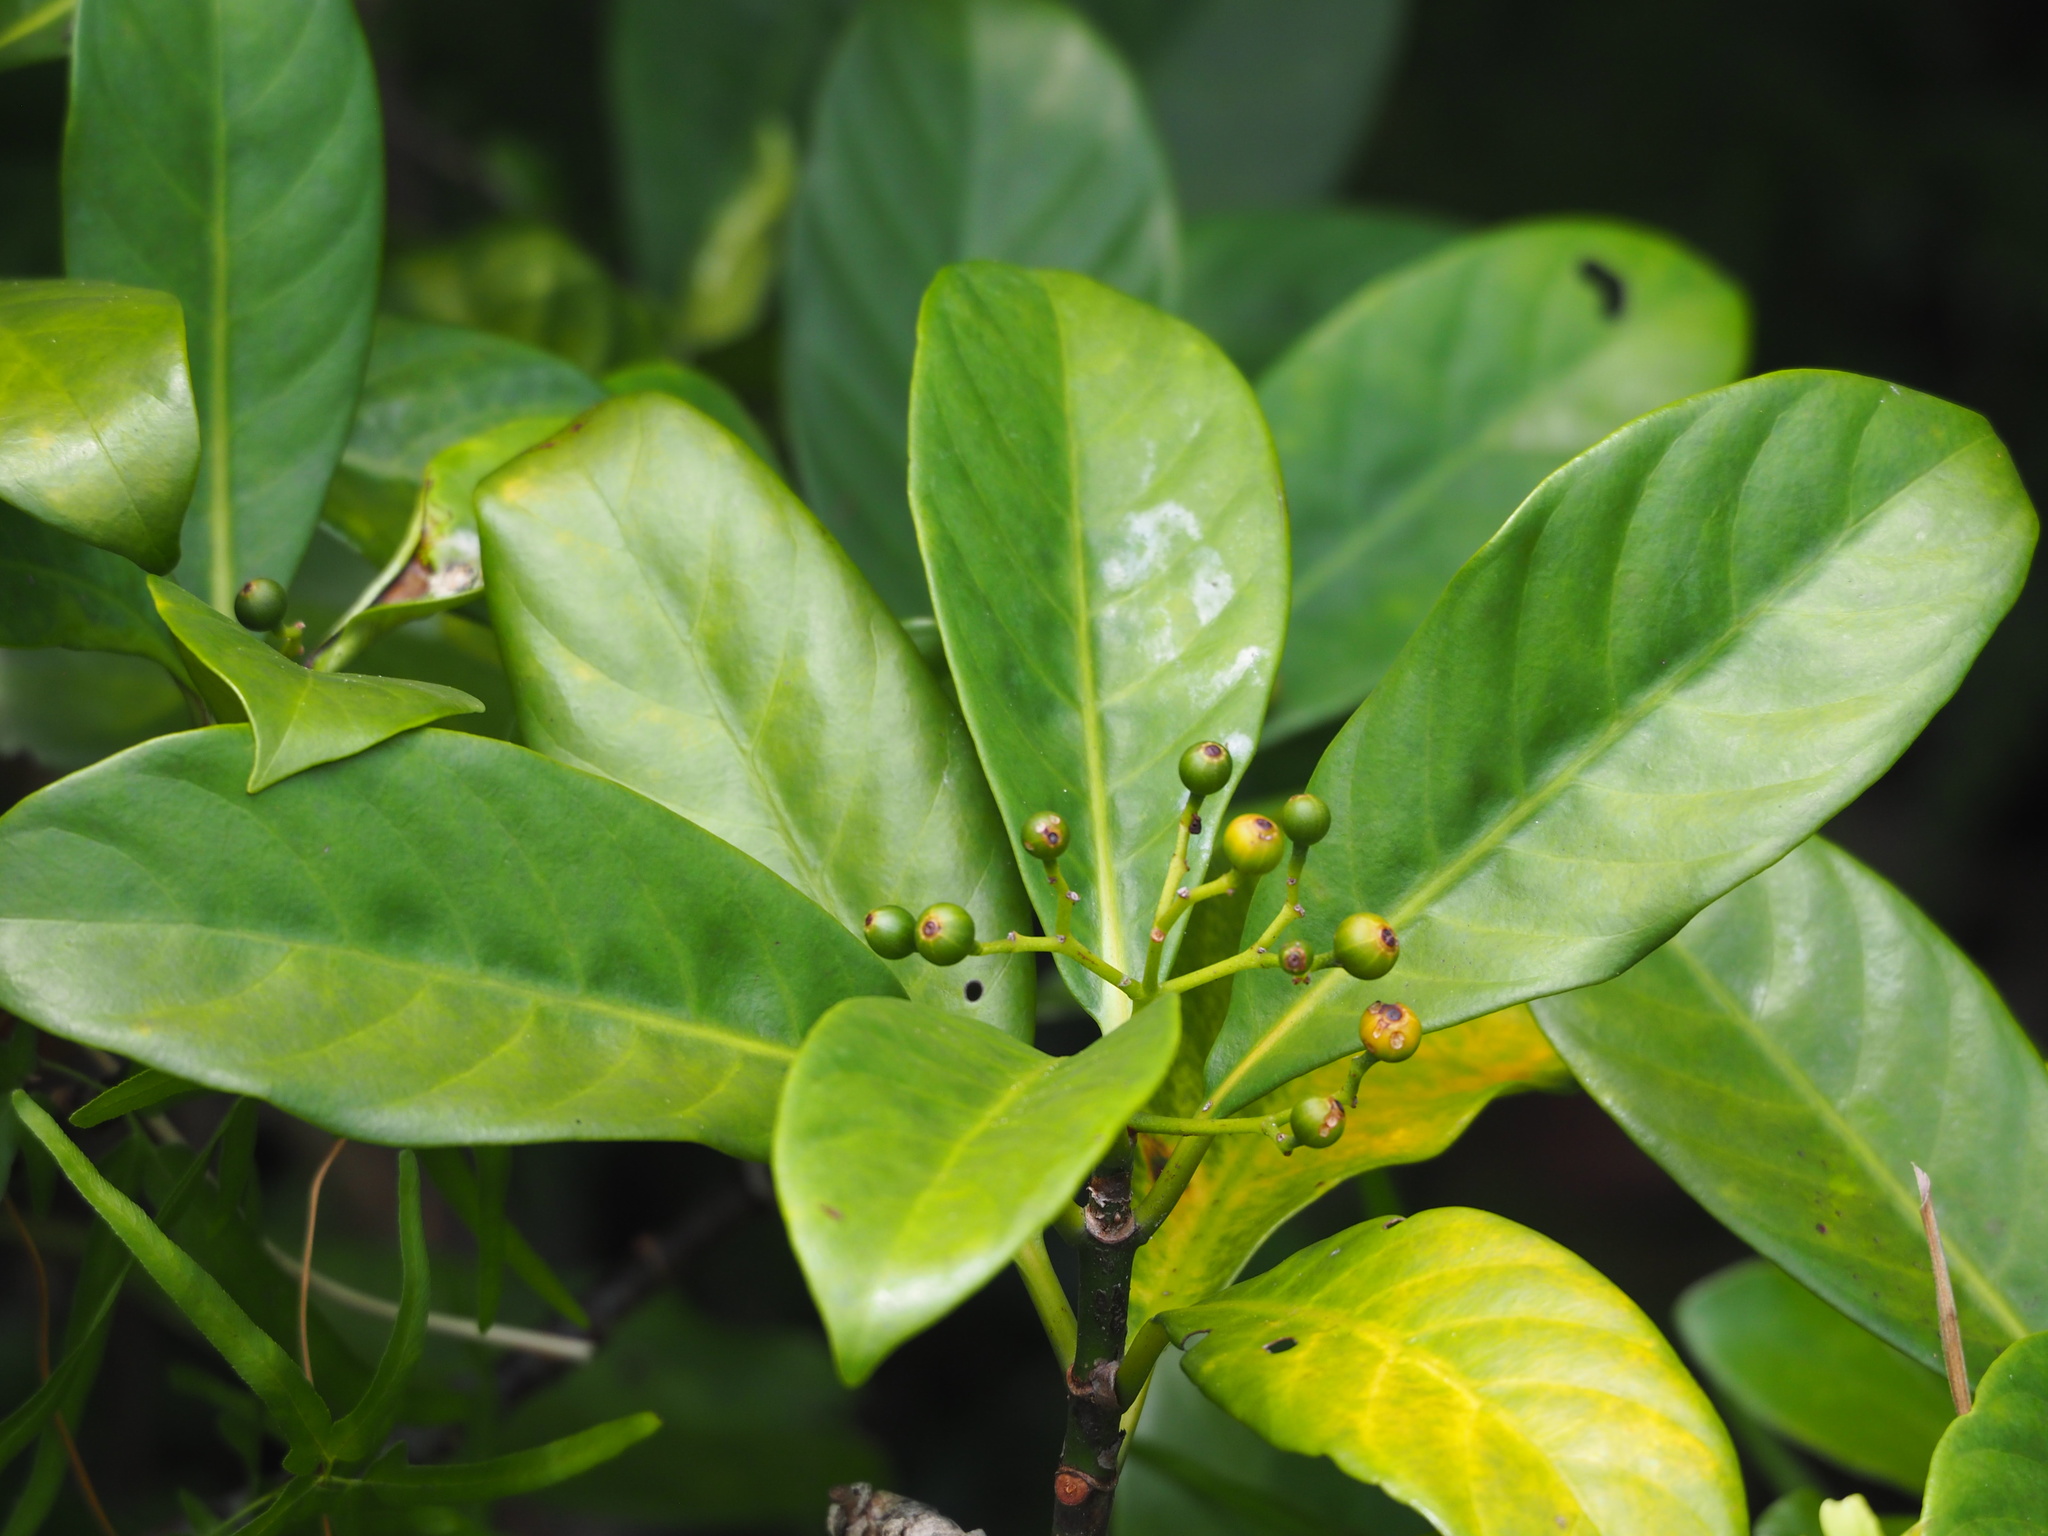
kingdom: Plantae
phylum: Tracheophyta
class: Magnoliopsida
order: Gentianales
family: Rubiaceae
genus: Psychotria
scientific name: Psychotria asiatica
